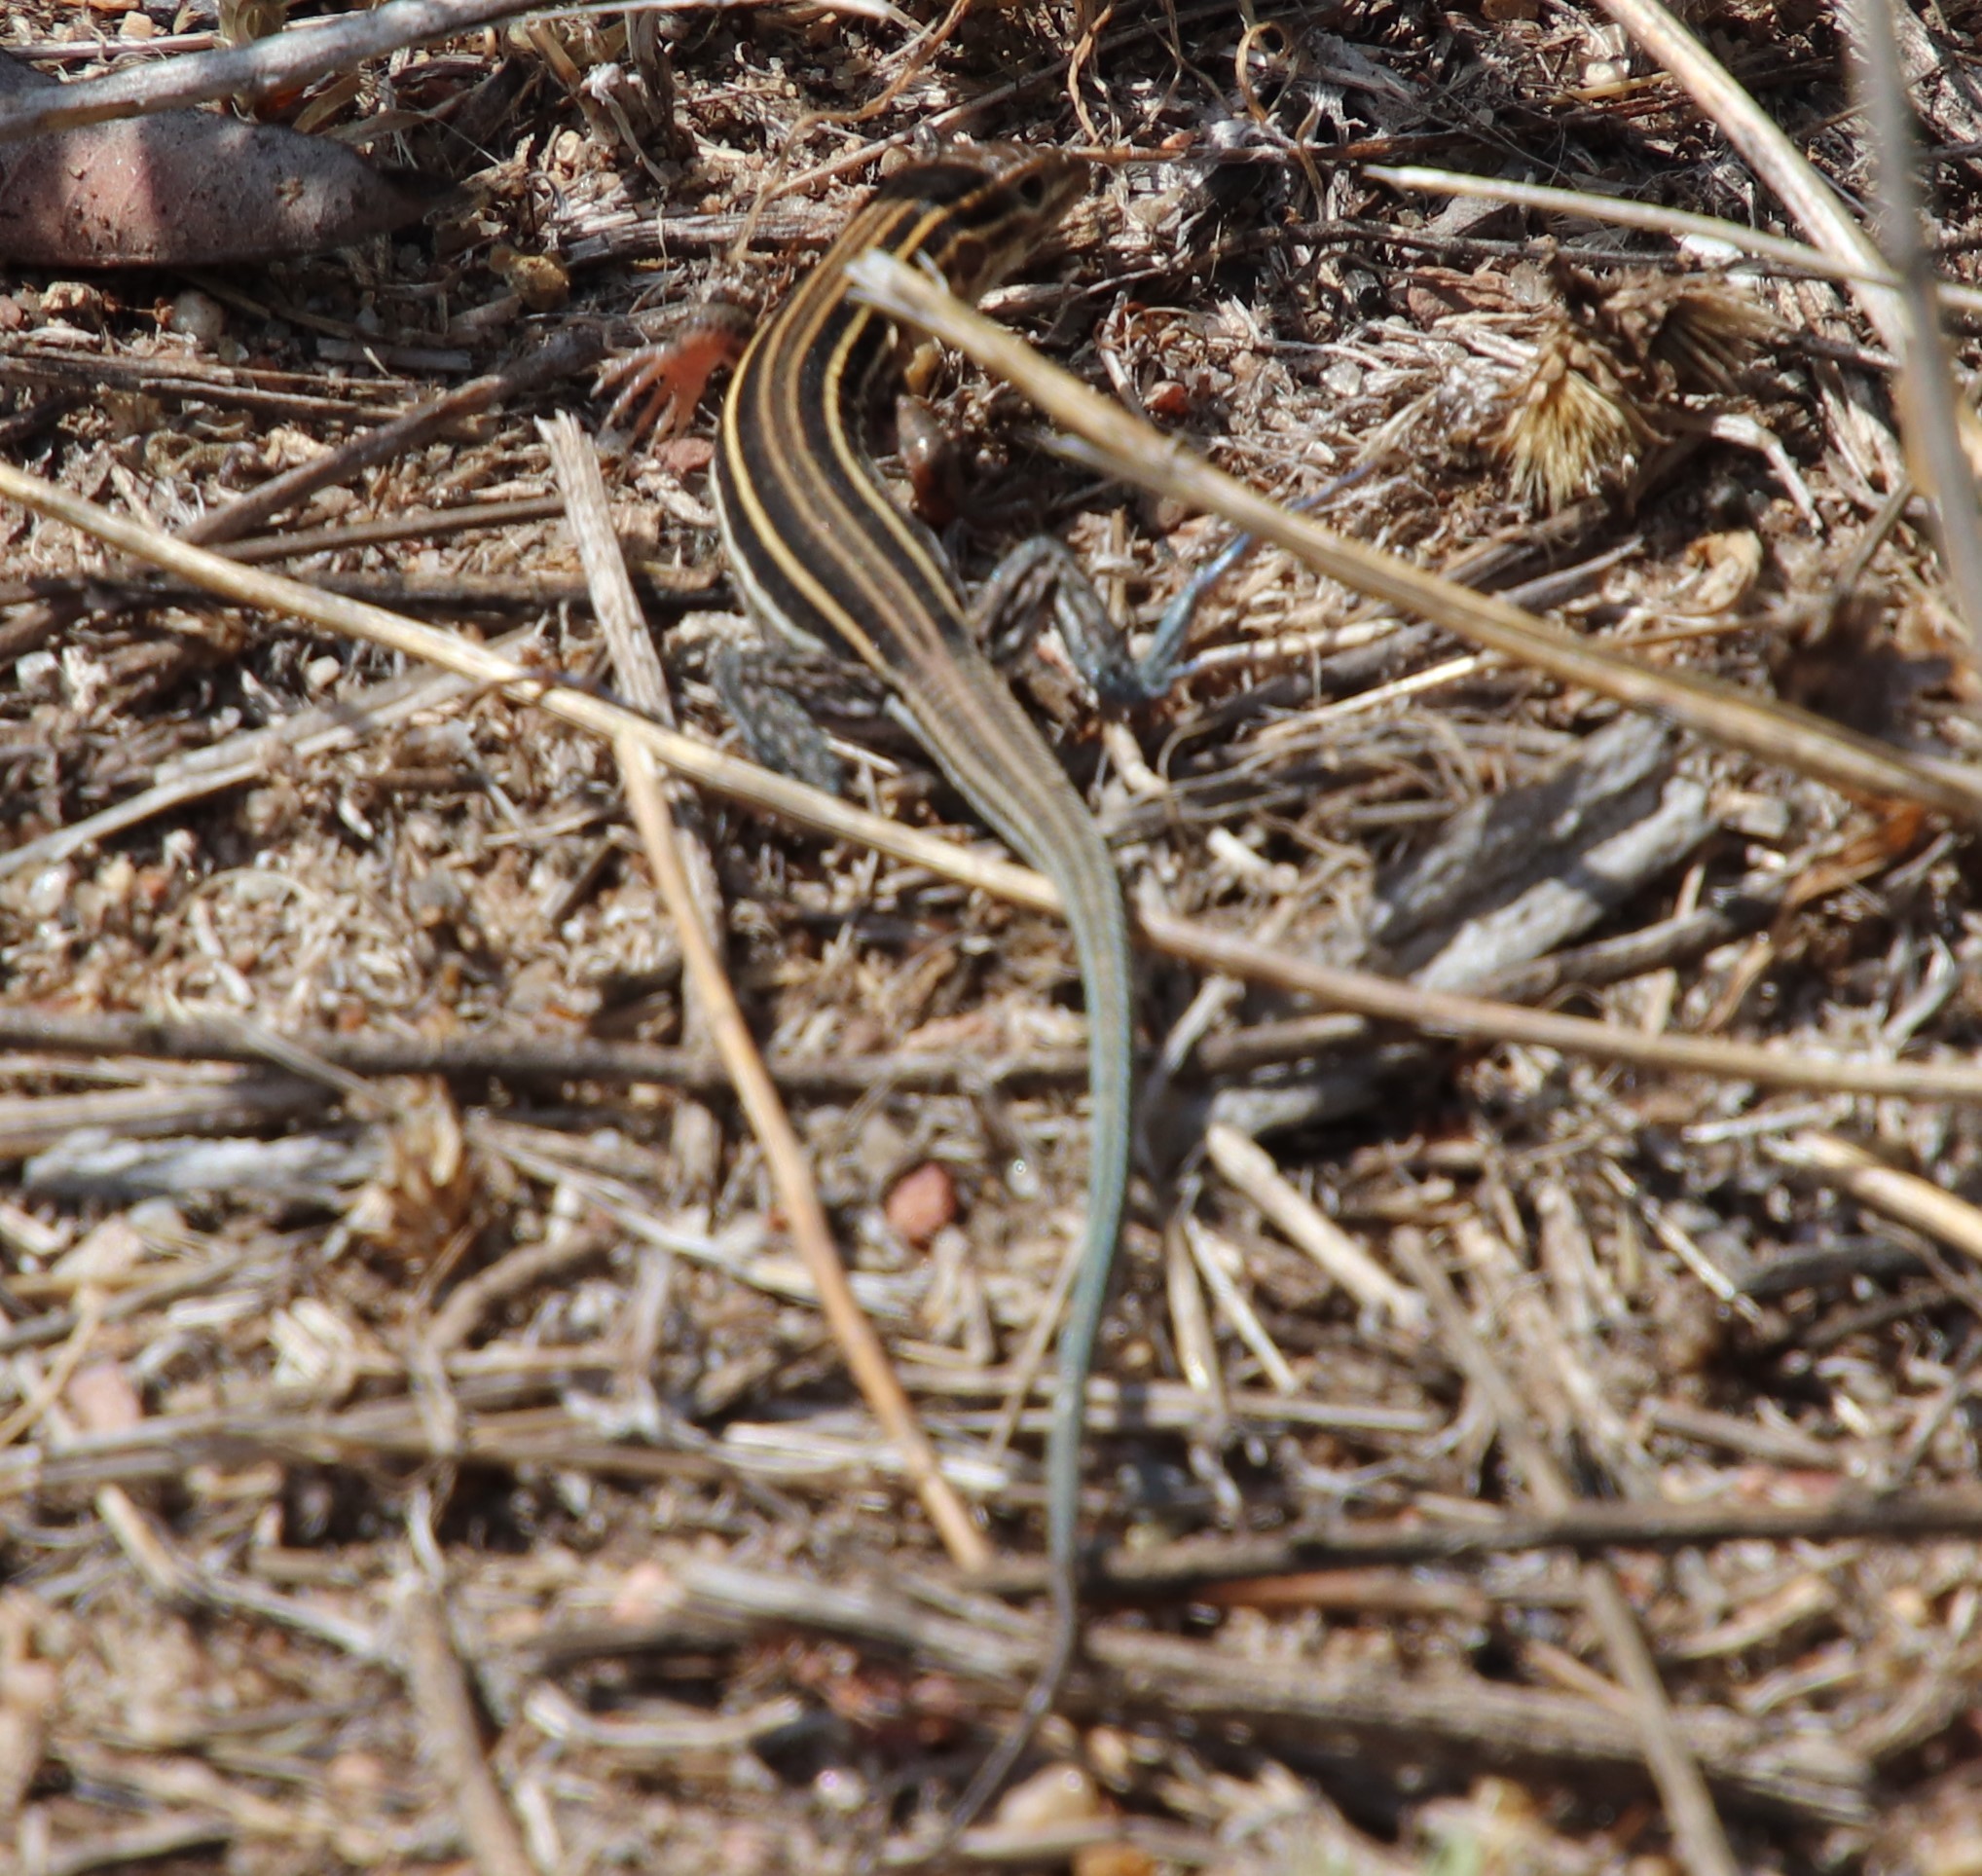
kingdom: Animalia
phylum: Chordata
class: Squamata
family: Teiidae
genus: Aspidoscelis
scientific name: Aspidoscelis hyperythrus
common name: Orange-throated race-runner
